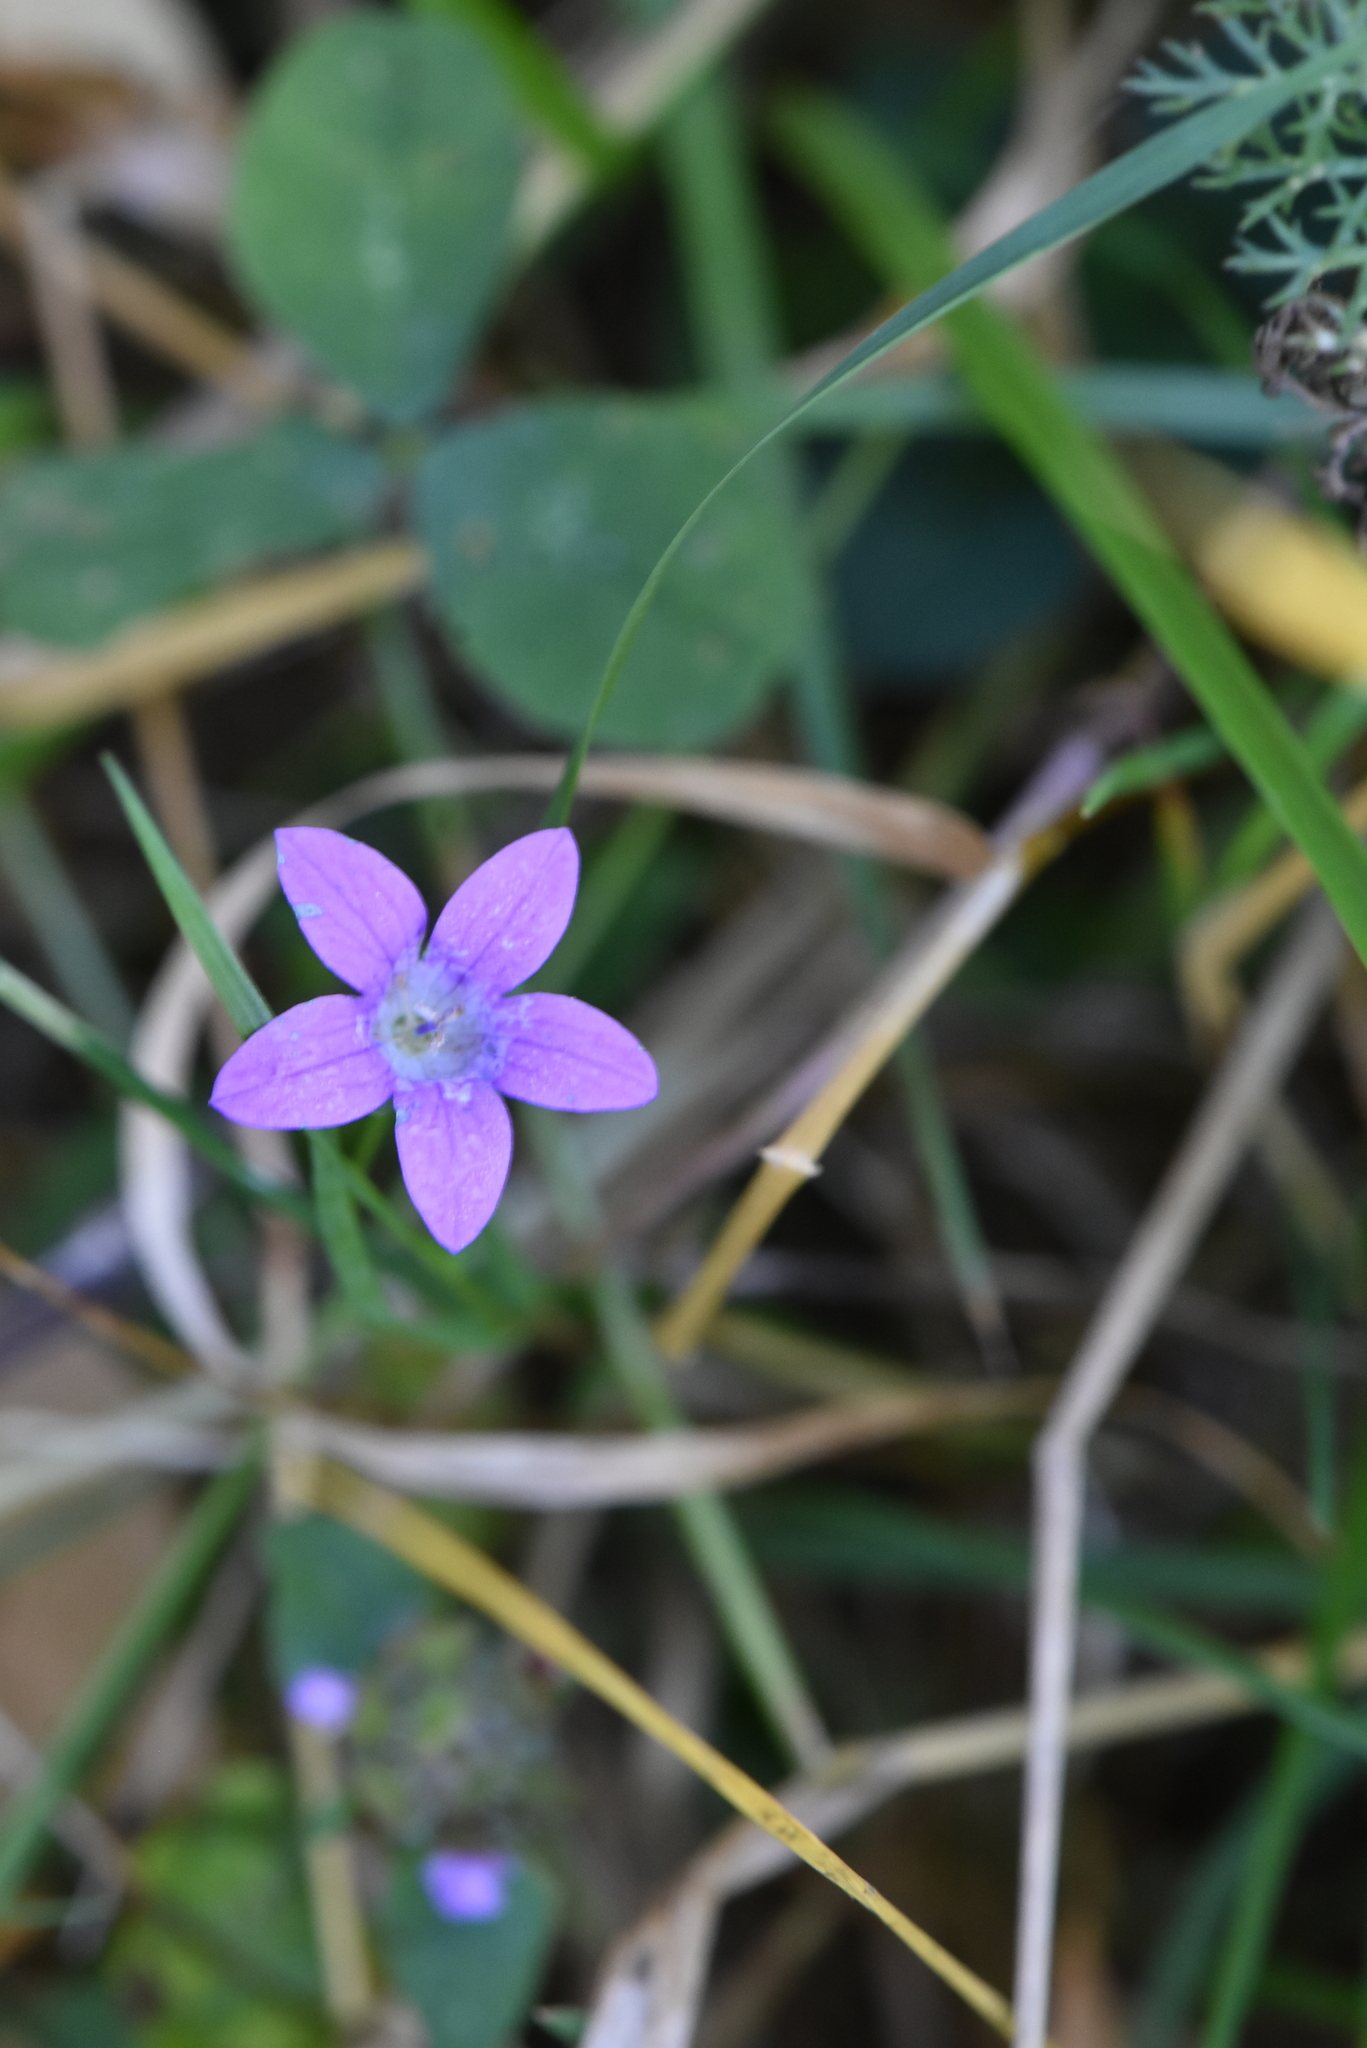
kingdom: Plantae
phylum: Tracheophyta
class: Magnoliopsida
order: Asterales
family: Campanulaceae
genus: Campanula
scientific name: Campanula patula
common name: Spreading bellflower
